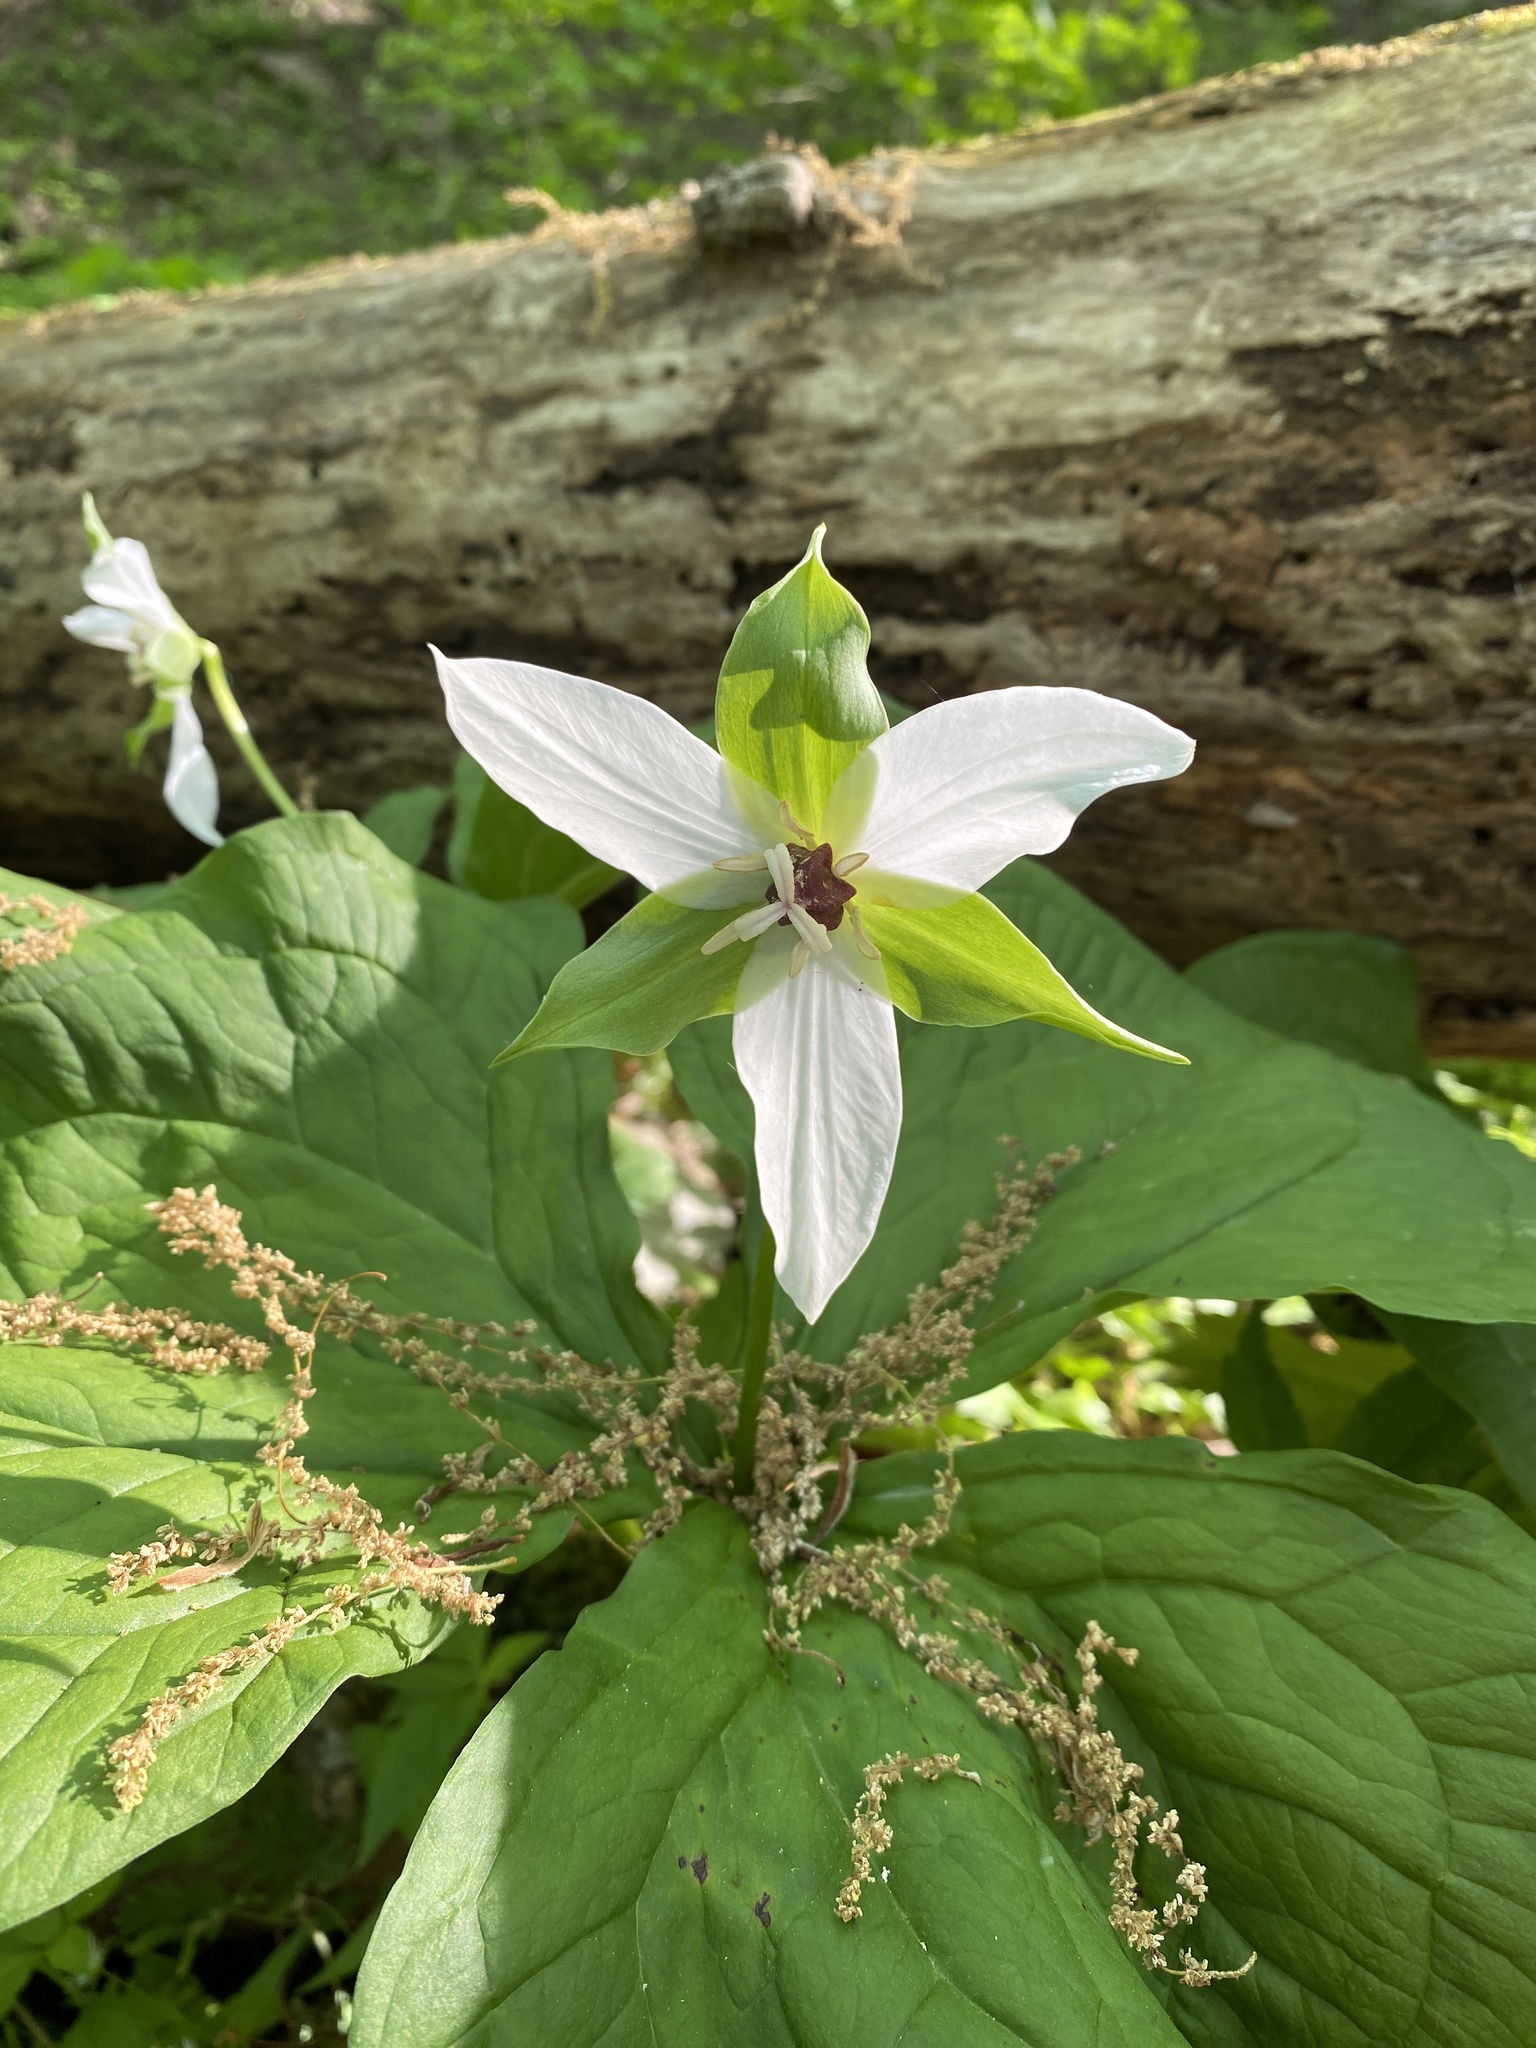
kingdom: Plantae
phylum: Tracheophyta
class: Liliopsida
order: Liliales
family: Melanthiaceae
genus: Trillium
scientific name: Trillium erectum
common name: Purple trillium
